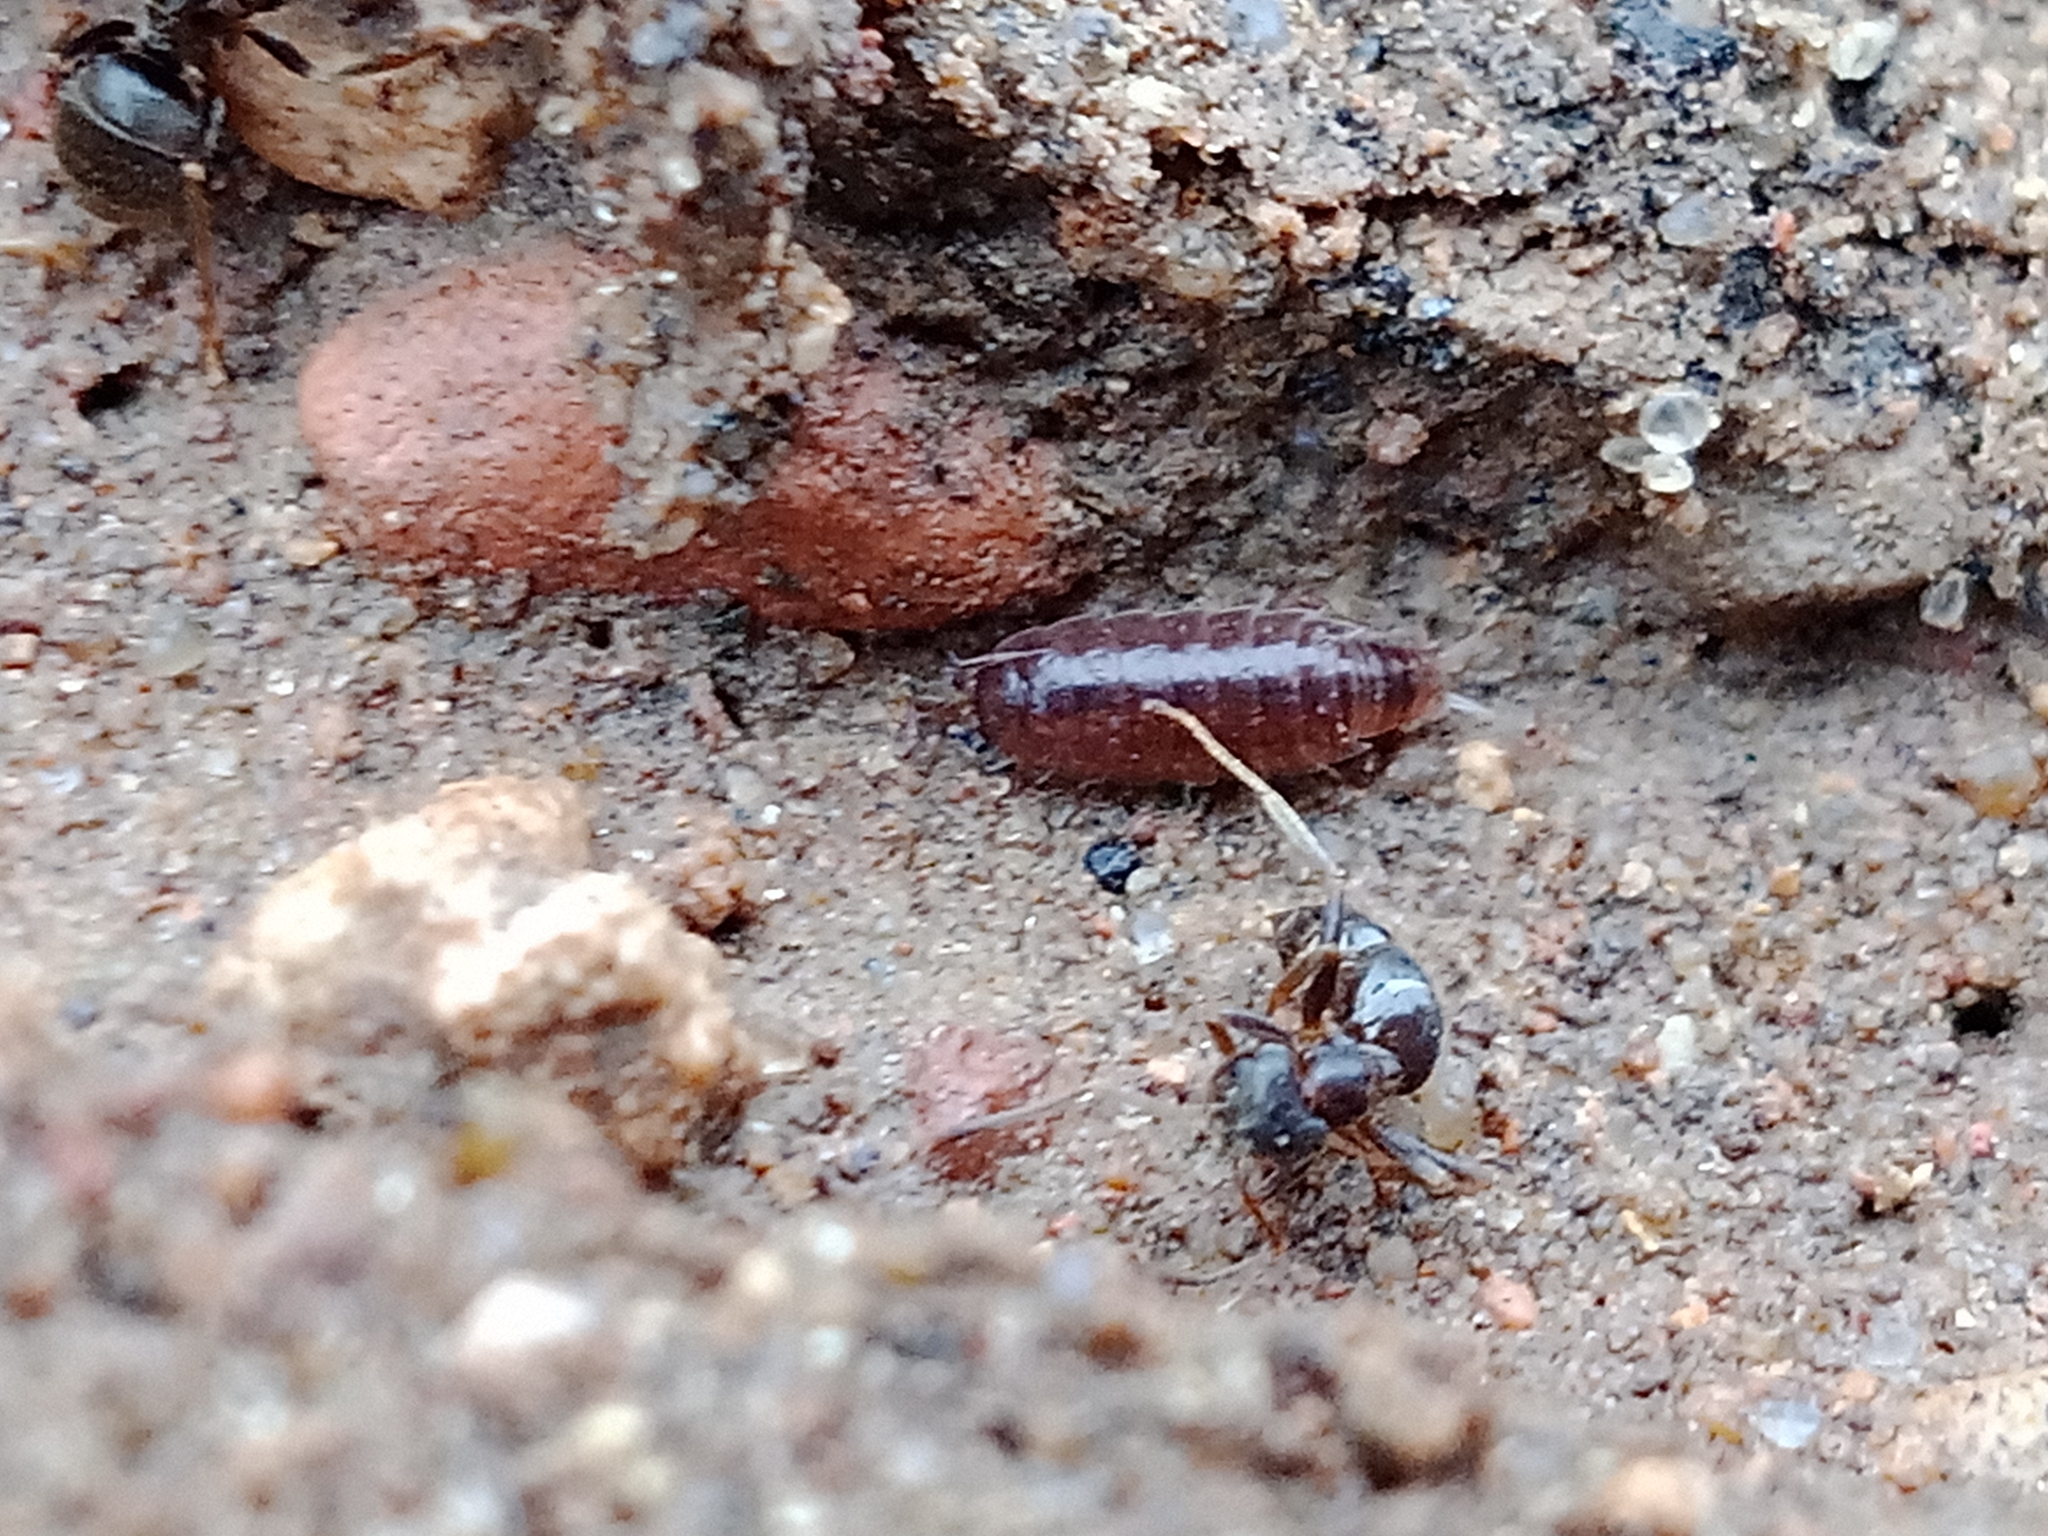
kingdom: Animalia
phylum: Arthropoda
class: Malacostraca
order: Isopoda
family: Trichoniscidae
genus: Hyloniscus
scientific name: Hyloniscus riparius
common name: Isopod
